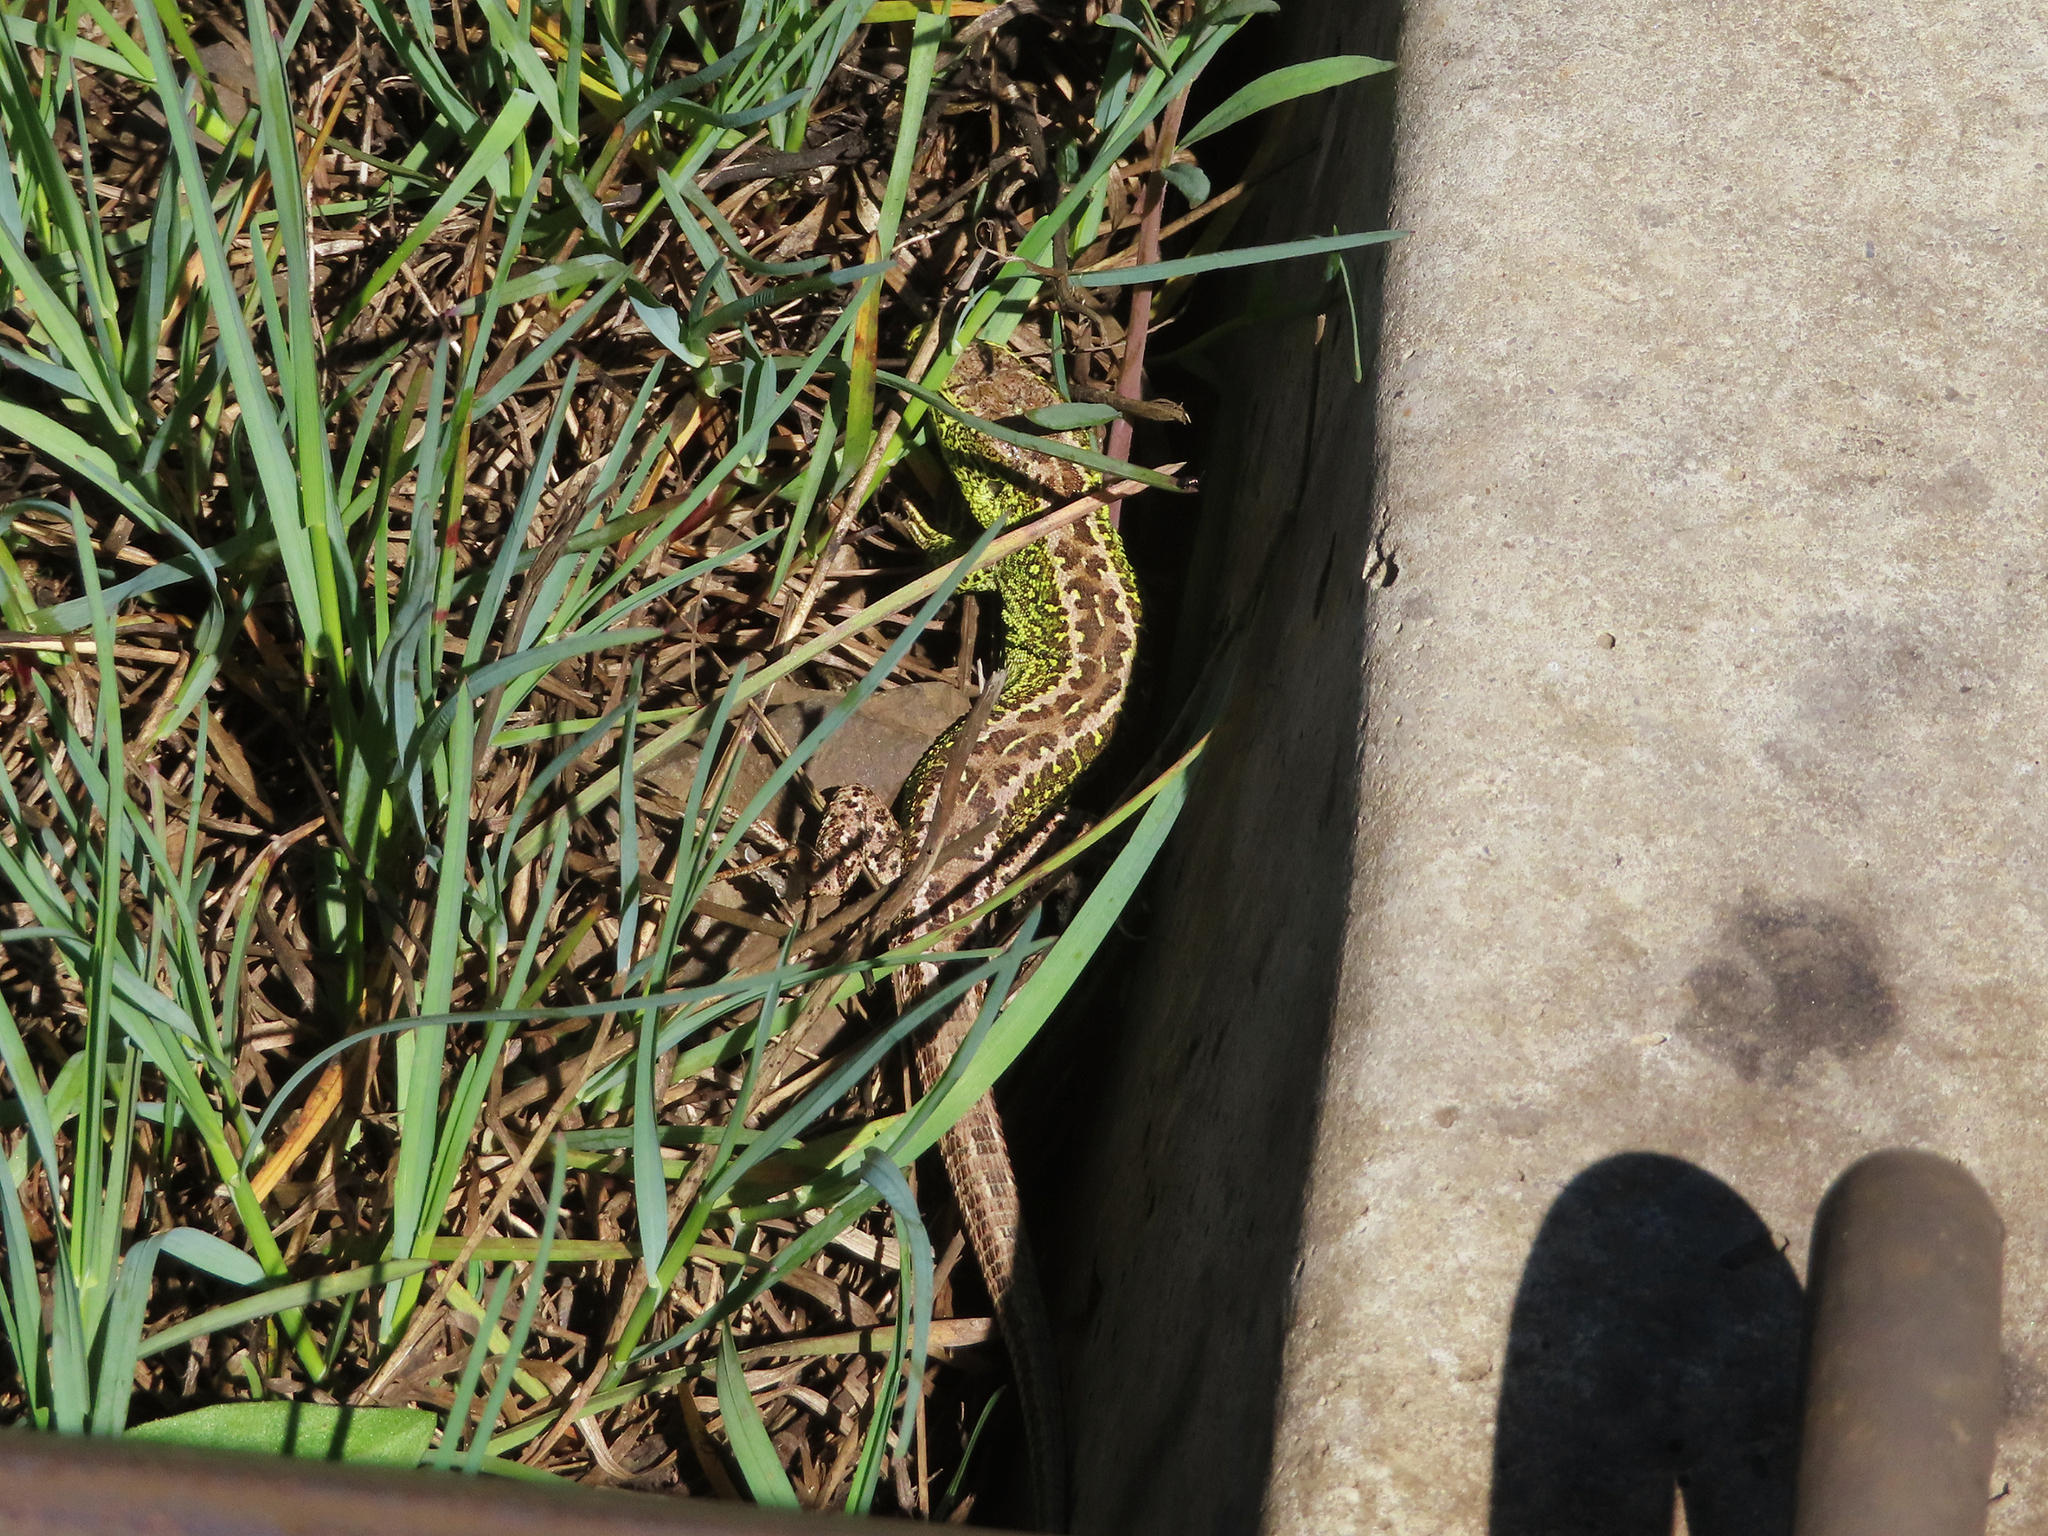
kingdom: Animalia
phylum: Chordata
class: Squamata
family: Lacertidae
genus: Lacerta
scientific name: Lacerta agilis
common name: Sand lizard
